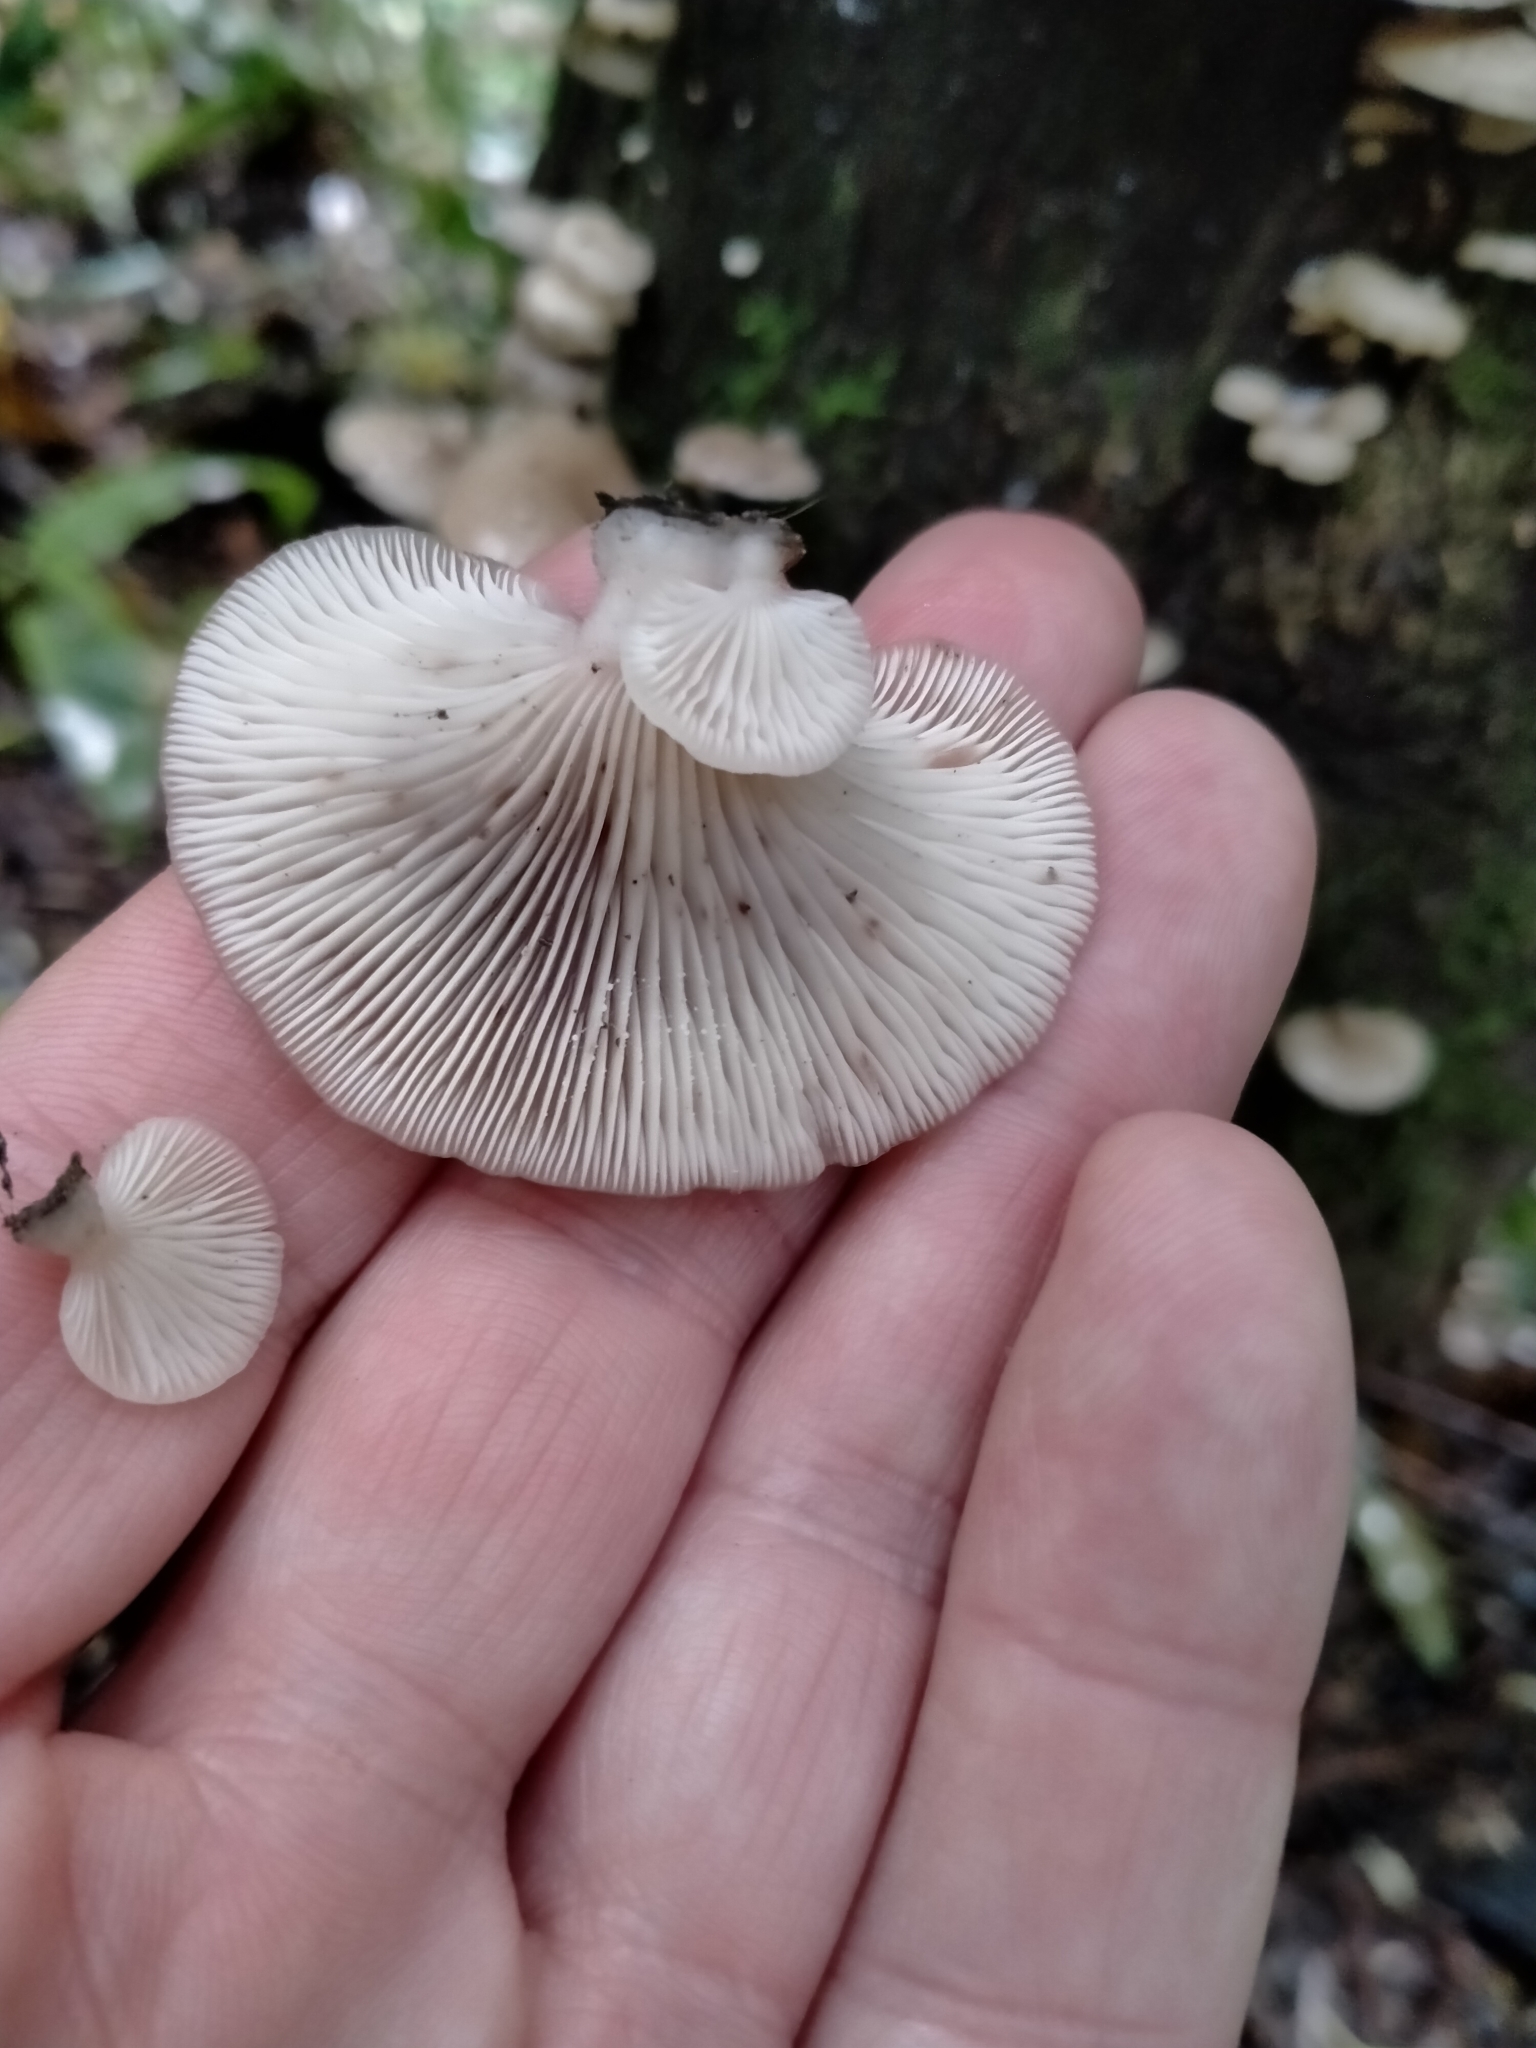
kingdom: Fungi
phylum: Basidiomycota
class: Agaricomycetes
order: Agaricales
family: Mycenaceae
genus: Panellus
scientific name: Panellus longinquus
